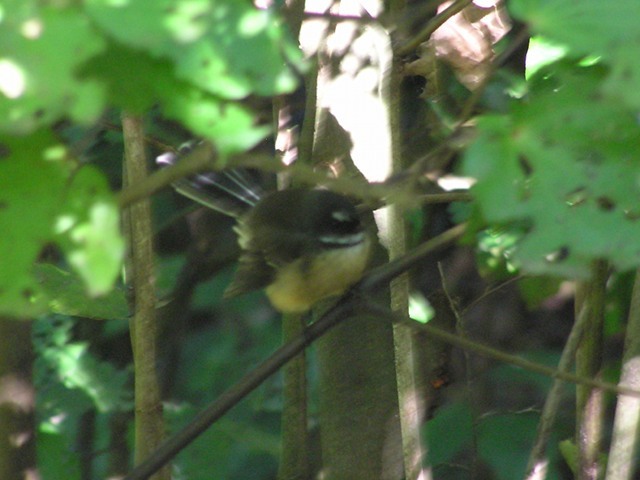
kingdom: Animalia
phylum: Chordata
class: Aves
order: Passeriformes
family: Rhipiduridae
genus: Rhipidura
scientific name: Rhipidura fuliginosa
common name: New zealand fantail
